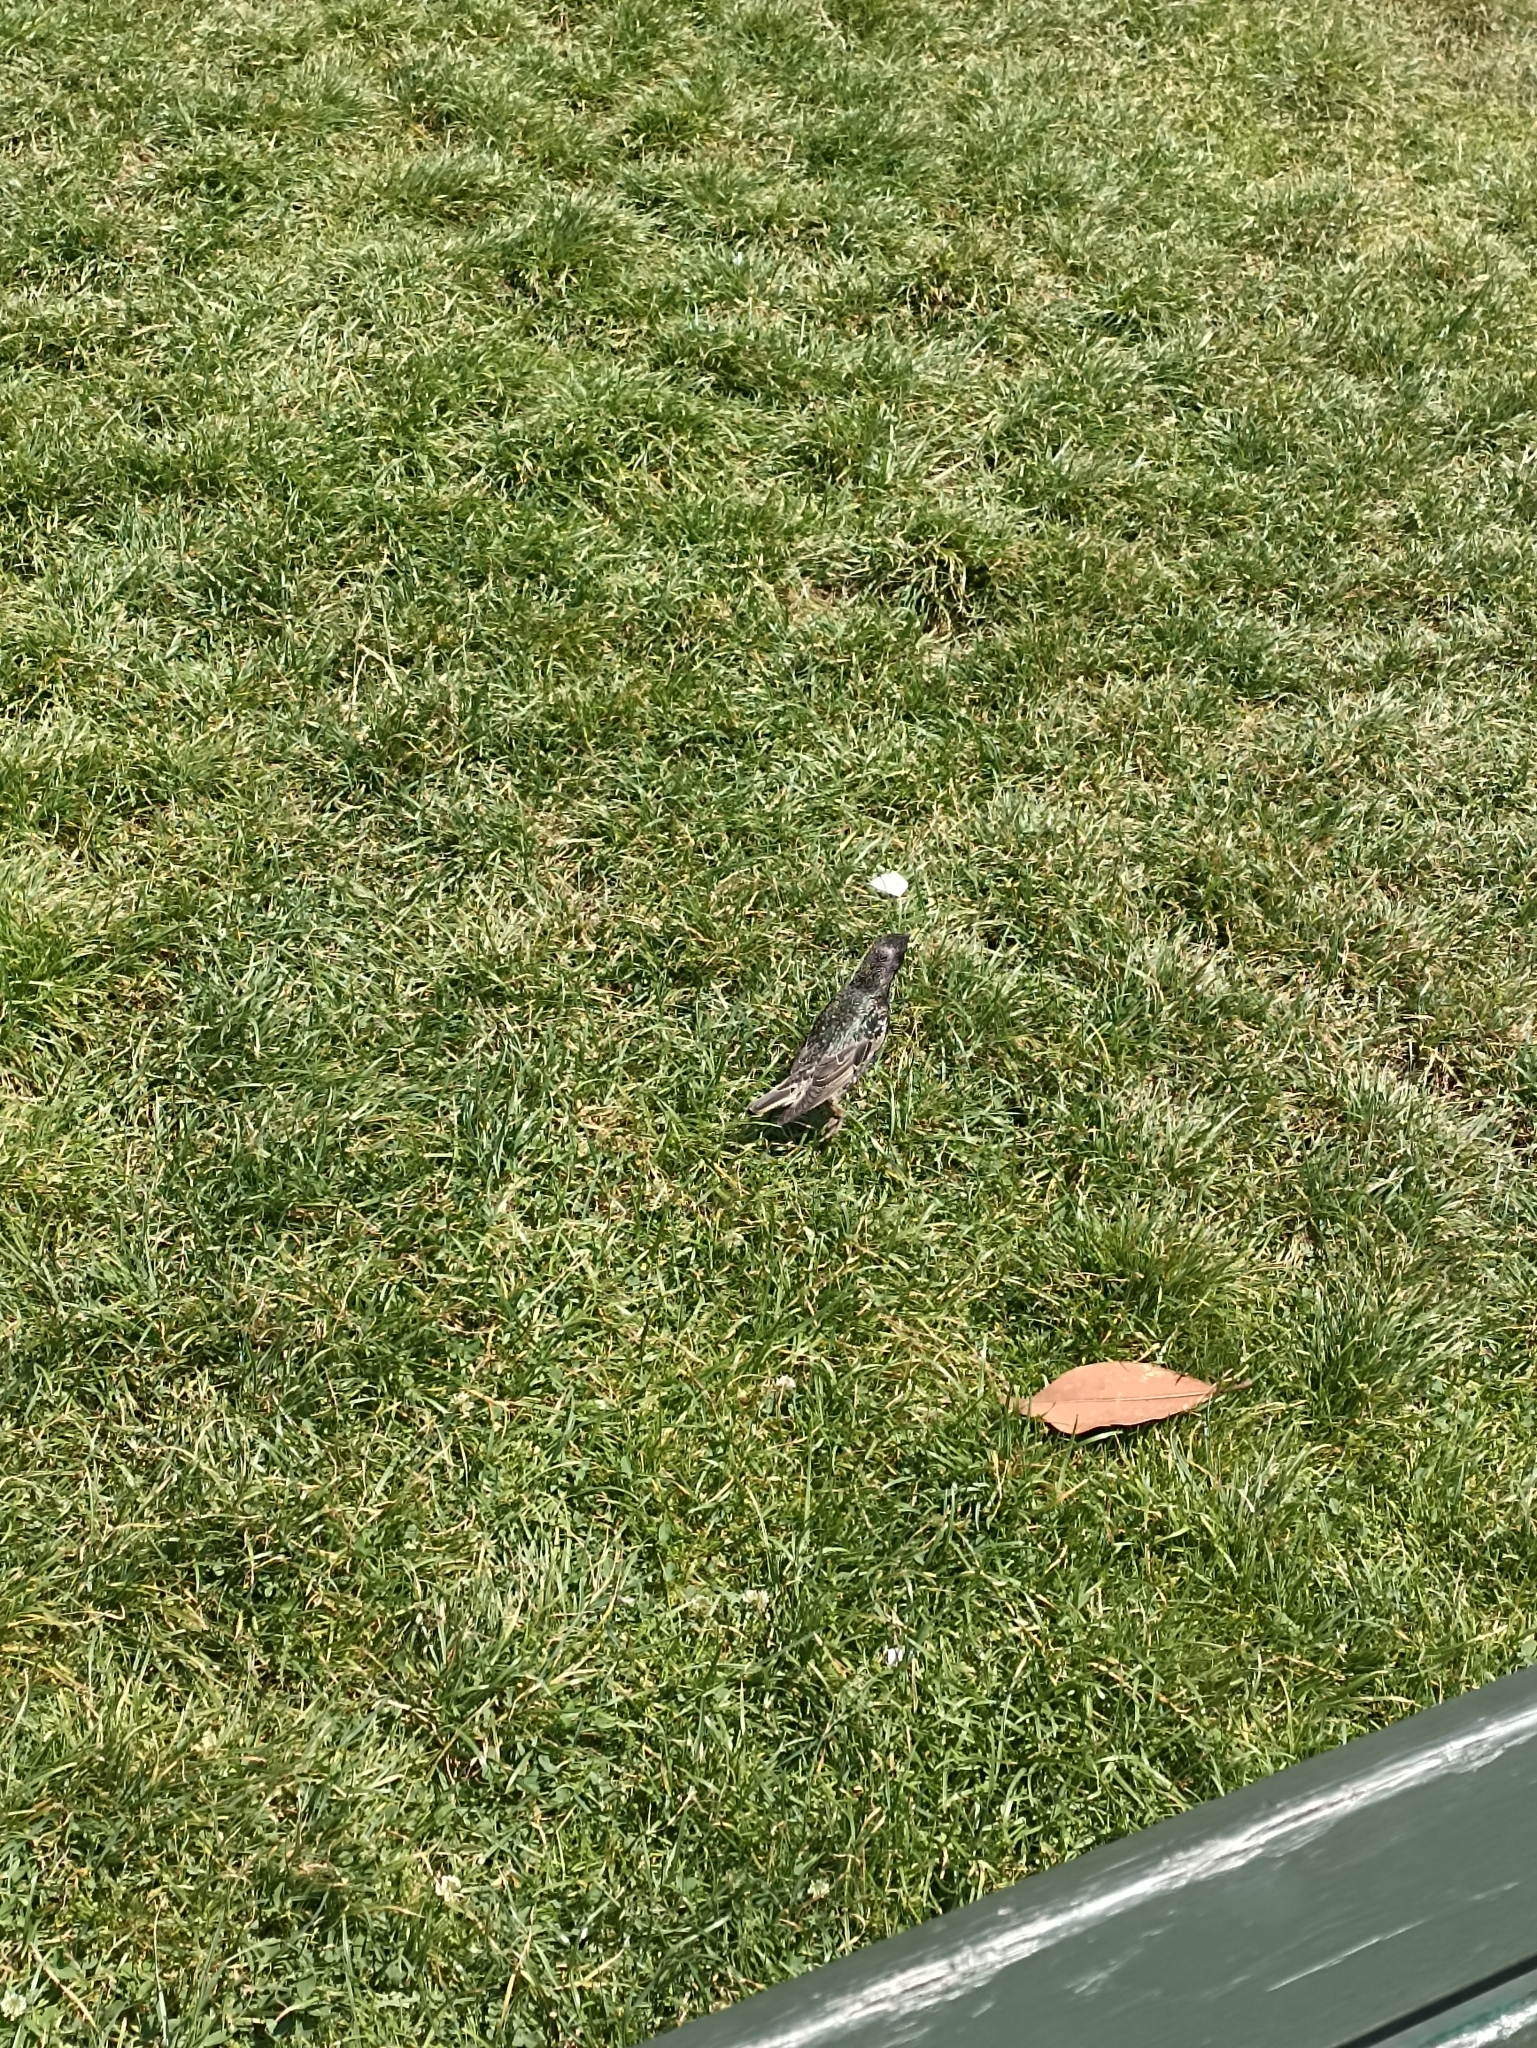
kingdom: Animalia
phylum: Chordata
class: Aves
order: Passeriformes
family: Sturnidae
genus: Sturnus
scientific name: Sturnus vulgaris
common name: Common starling
